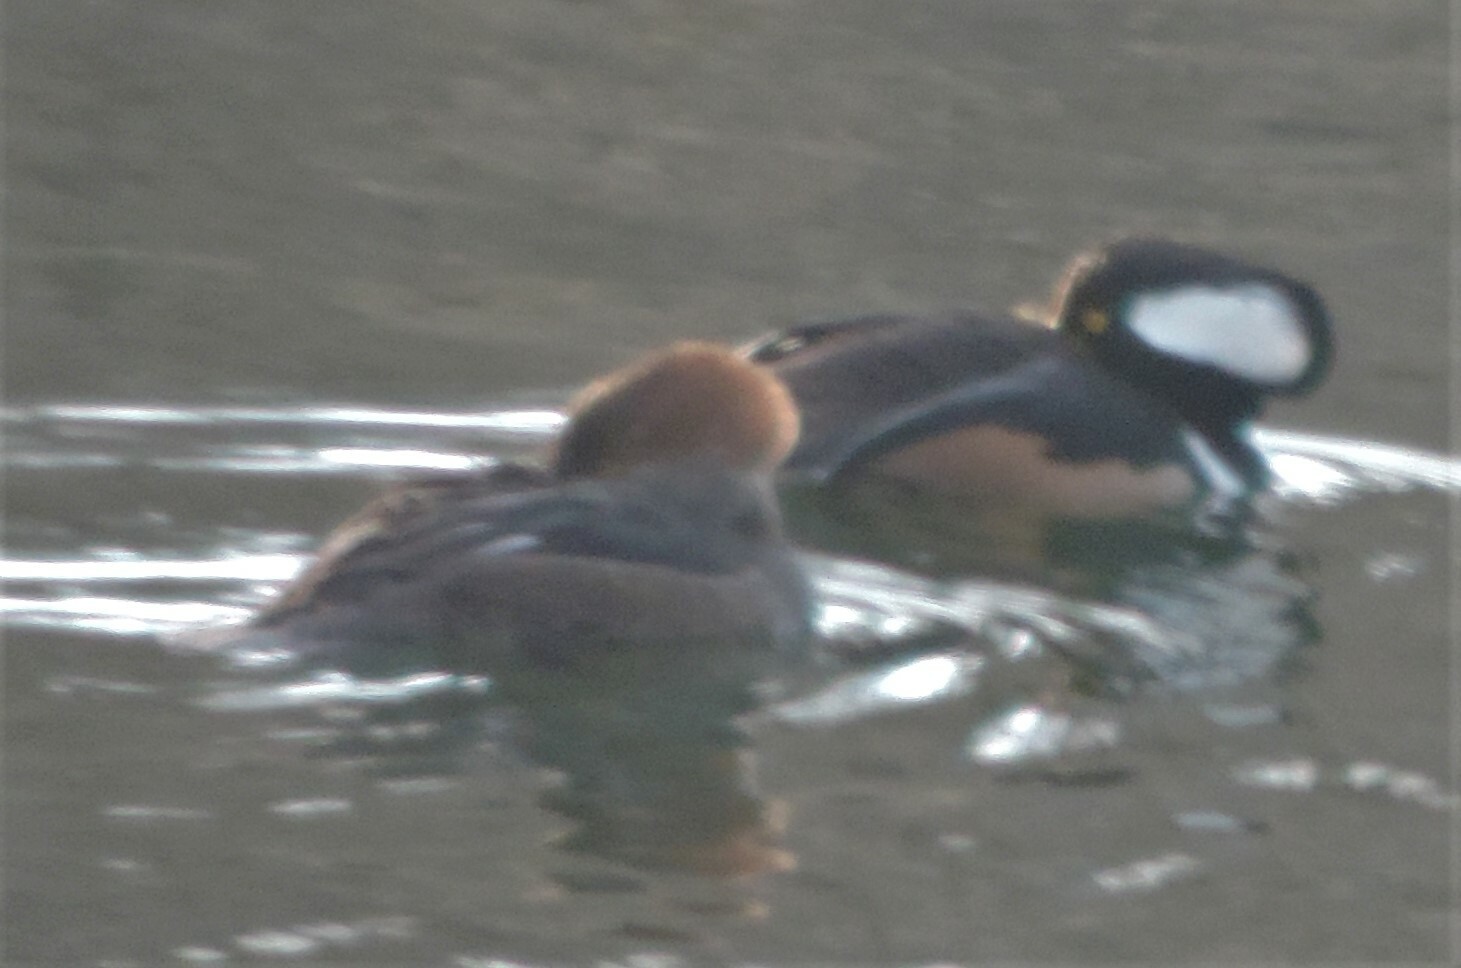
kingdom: Animalia
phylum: Chordata
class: Aves
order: Anseriformes
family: Anatidae
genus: Lophodytes
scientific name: Lophodytes cucullatus
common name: Hooded merganser
